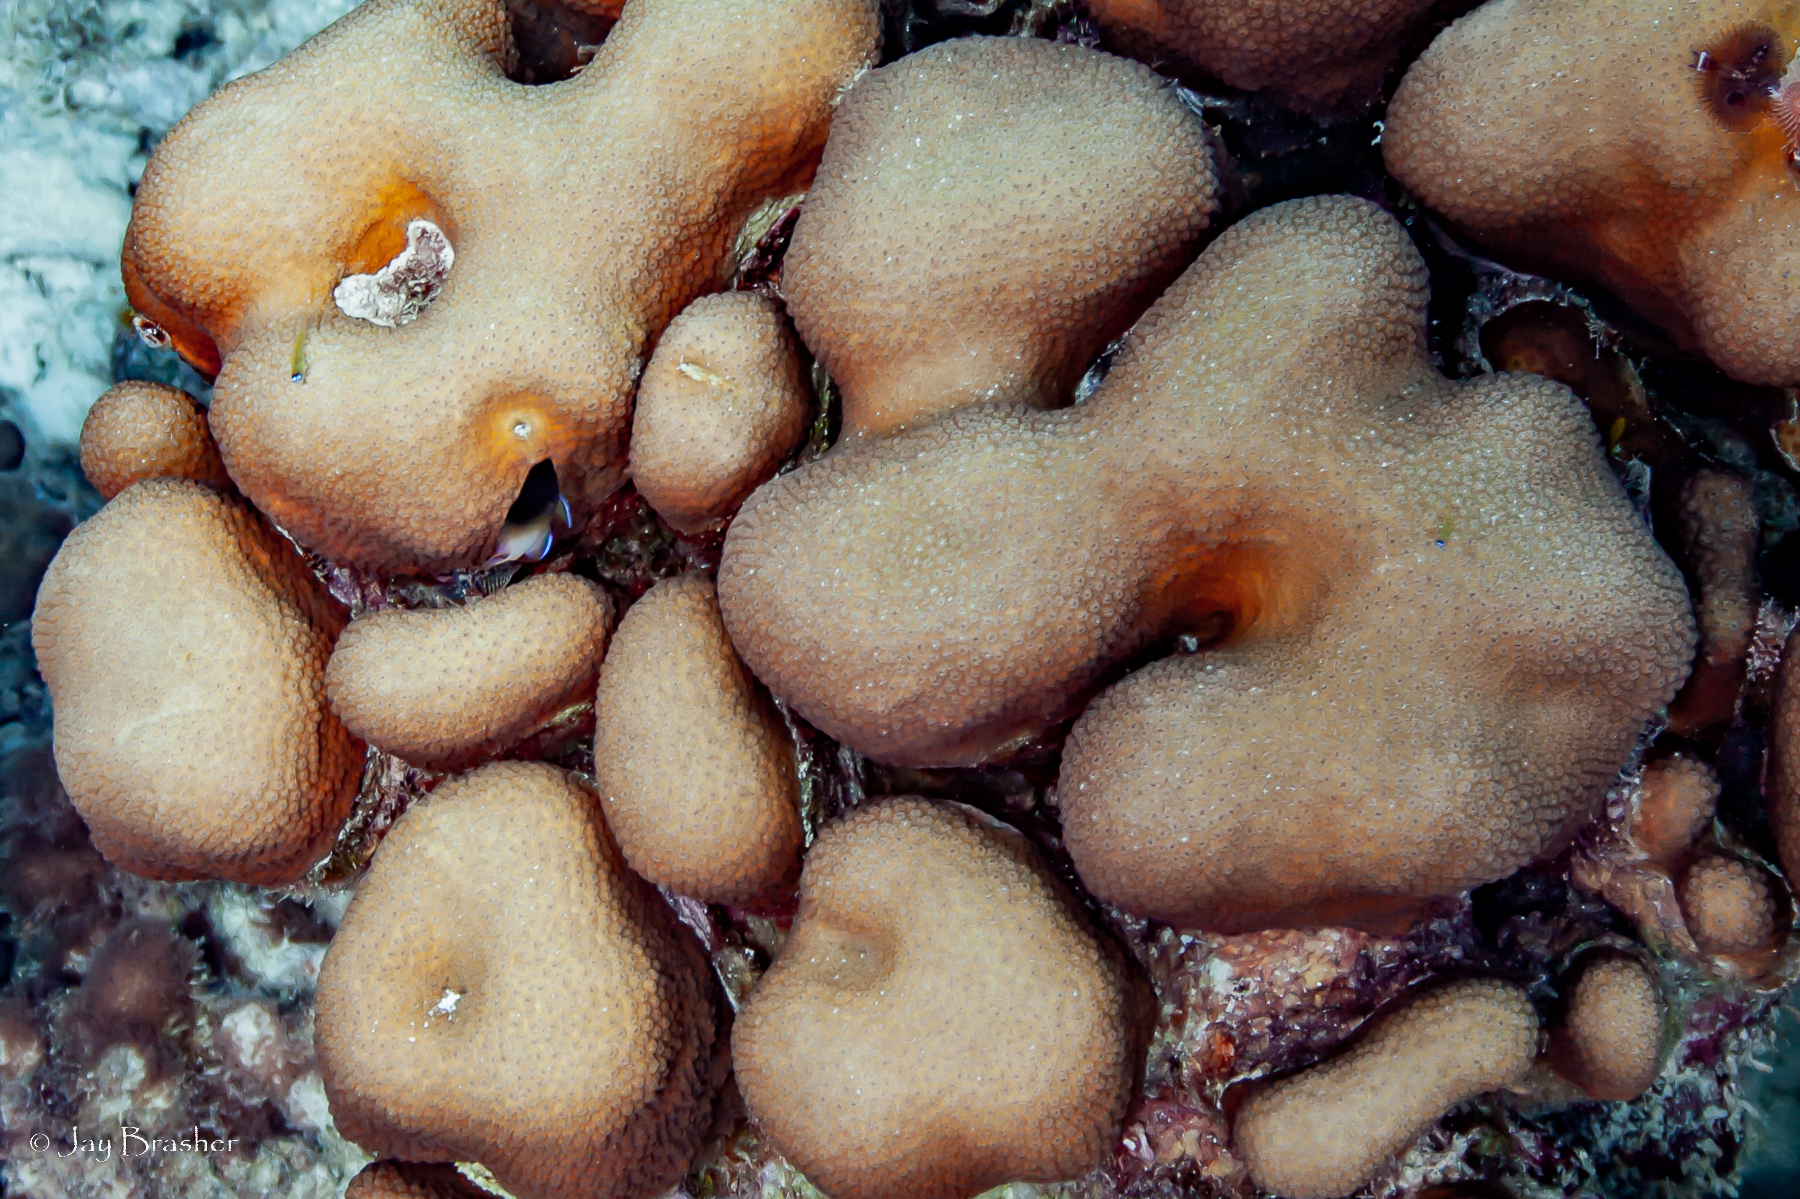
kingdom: Animalia
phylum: Cnidaria
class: Anthozoa
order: Scleractinia
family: Merulinidae
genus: Orbicella
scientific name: Orbicella annularis
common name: Boulder star coral
